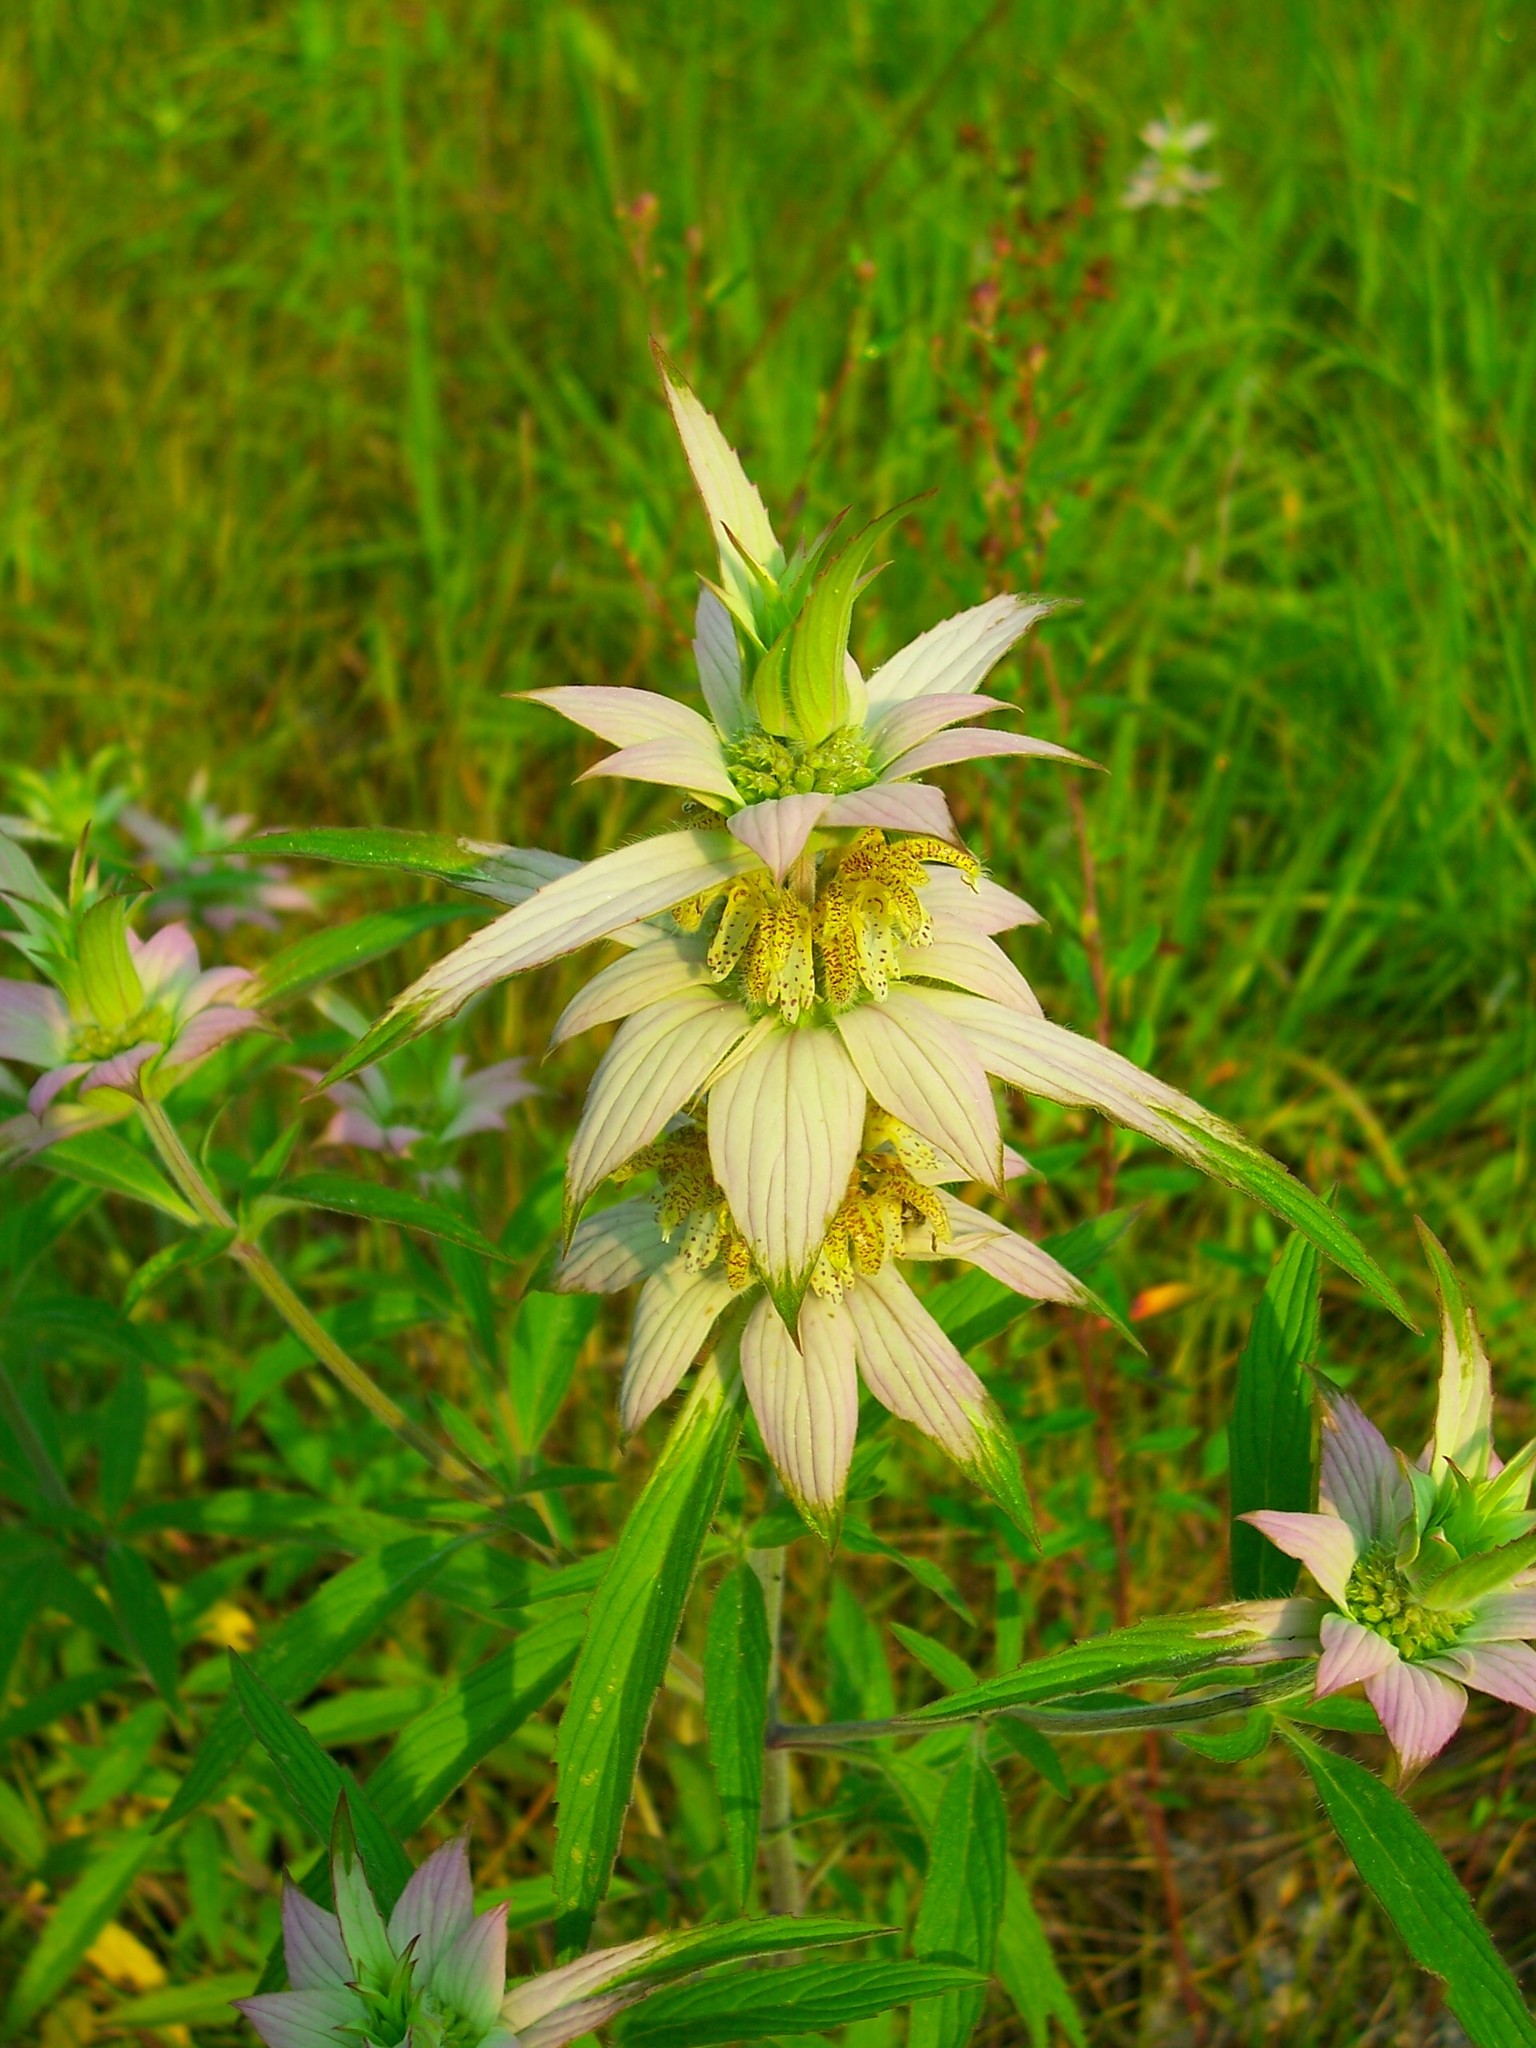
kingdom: Plantae
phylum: Tracheophyta
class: Magnoliopsida
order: Lamiales
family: Lamiaceae
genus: Monarda
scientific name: Monarda punctata
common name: Dotted monarda
